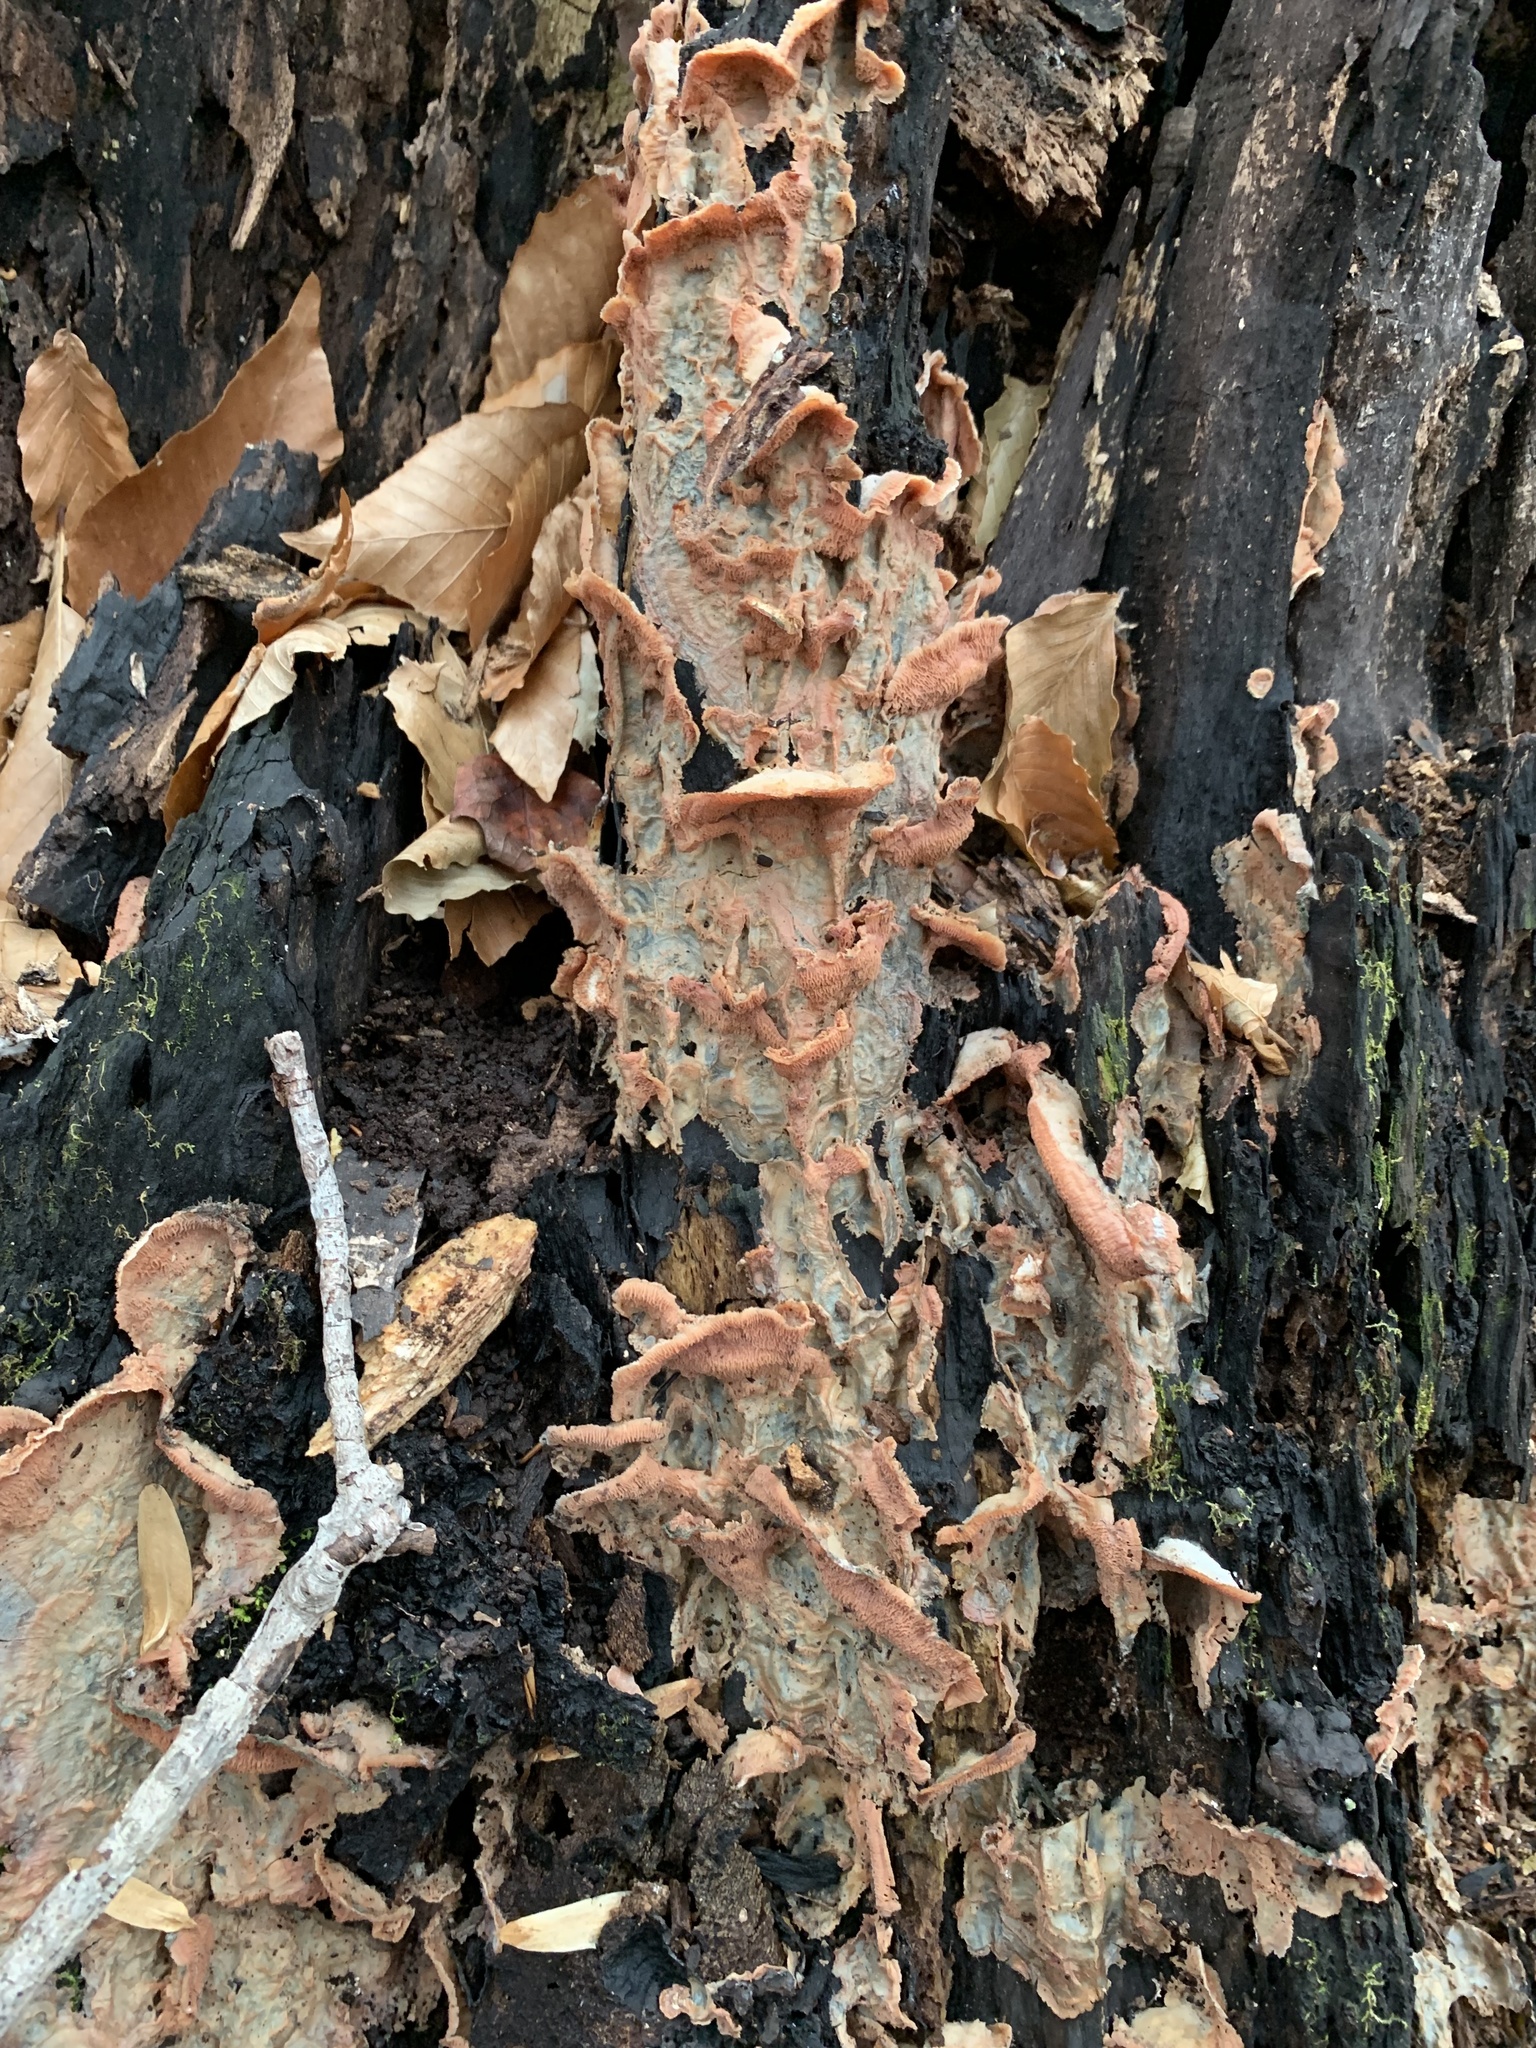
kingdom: Fungi
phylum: Basidiomycota
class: Agaricomycetes
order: Polyporales
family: Meruliaceae
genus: Phlebia
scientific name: Phlebia tremellosa
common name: Jelly rot
